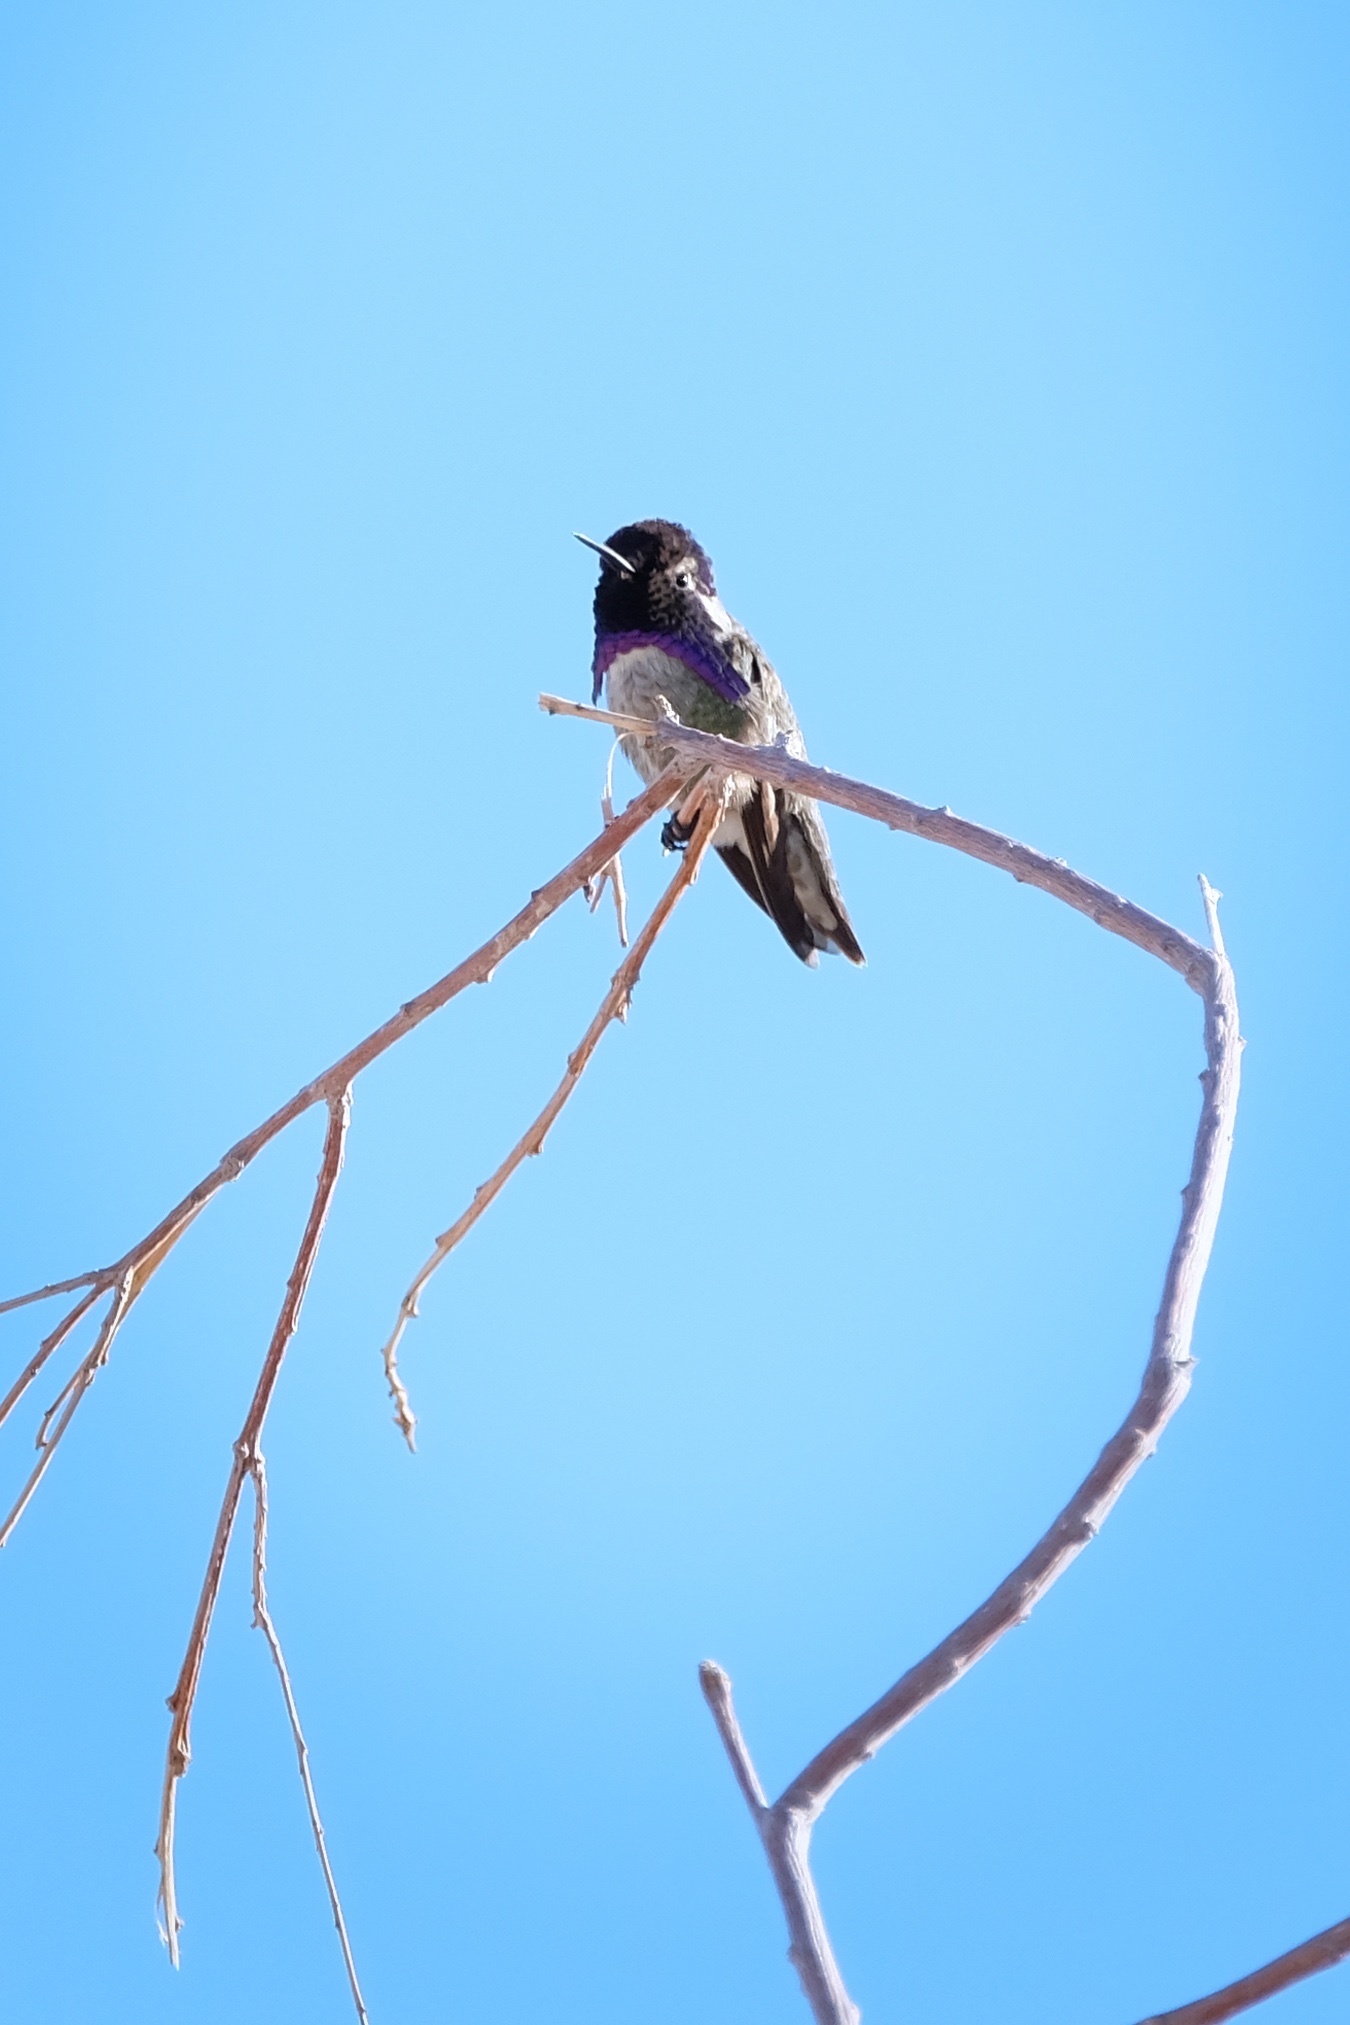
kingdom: Animalia
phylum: Chordata
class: Aves
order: Apodiformes
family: Trochilidae
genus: Calypte
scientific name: Calypte costae
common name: Costa's hummingbird
